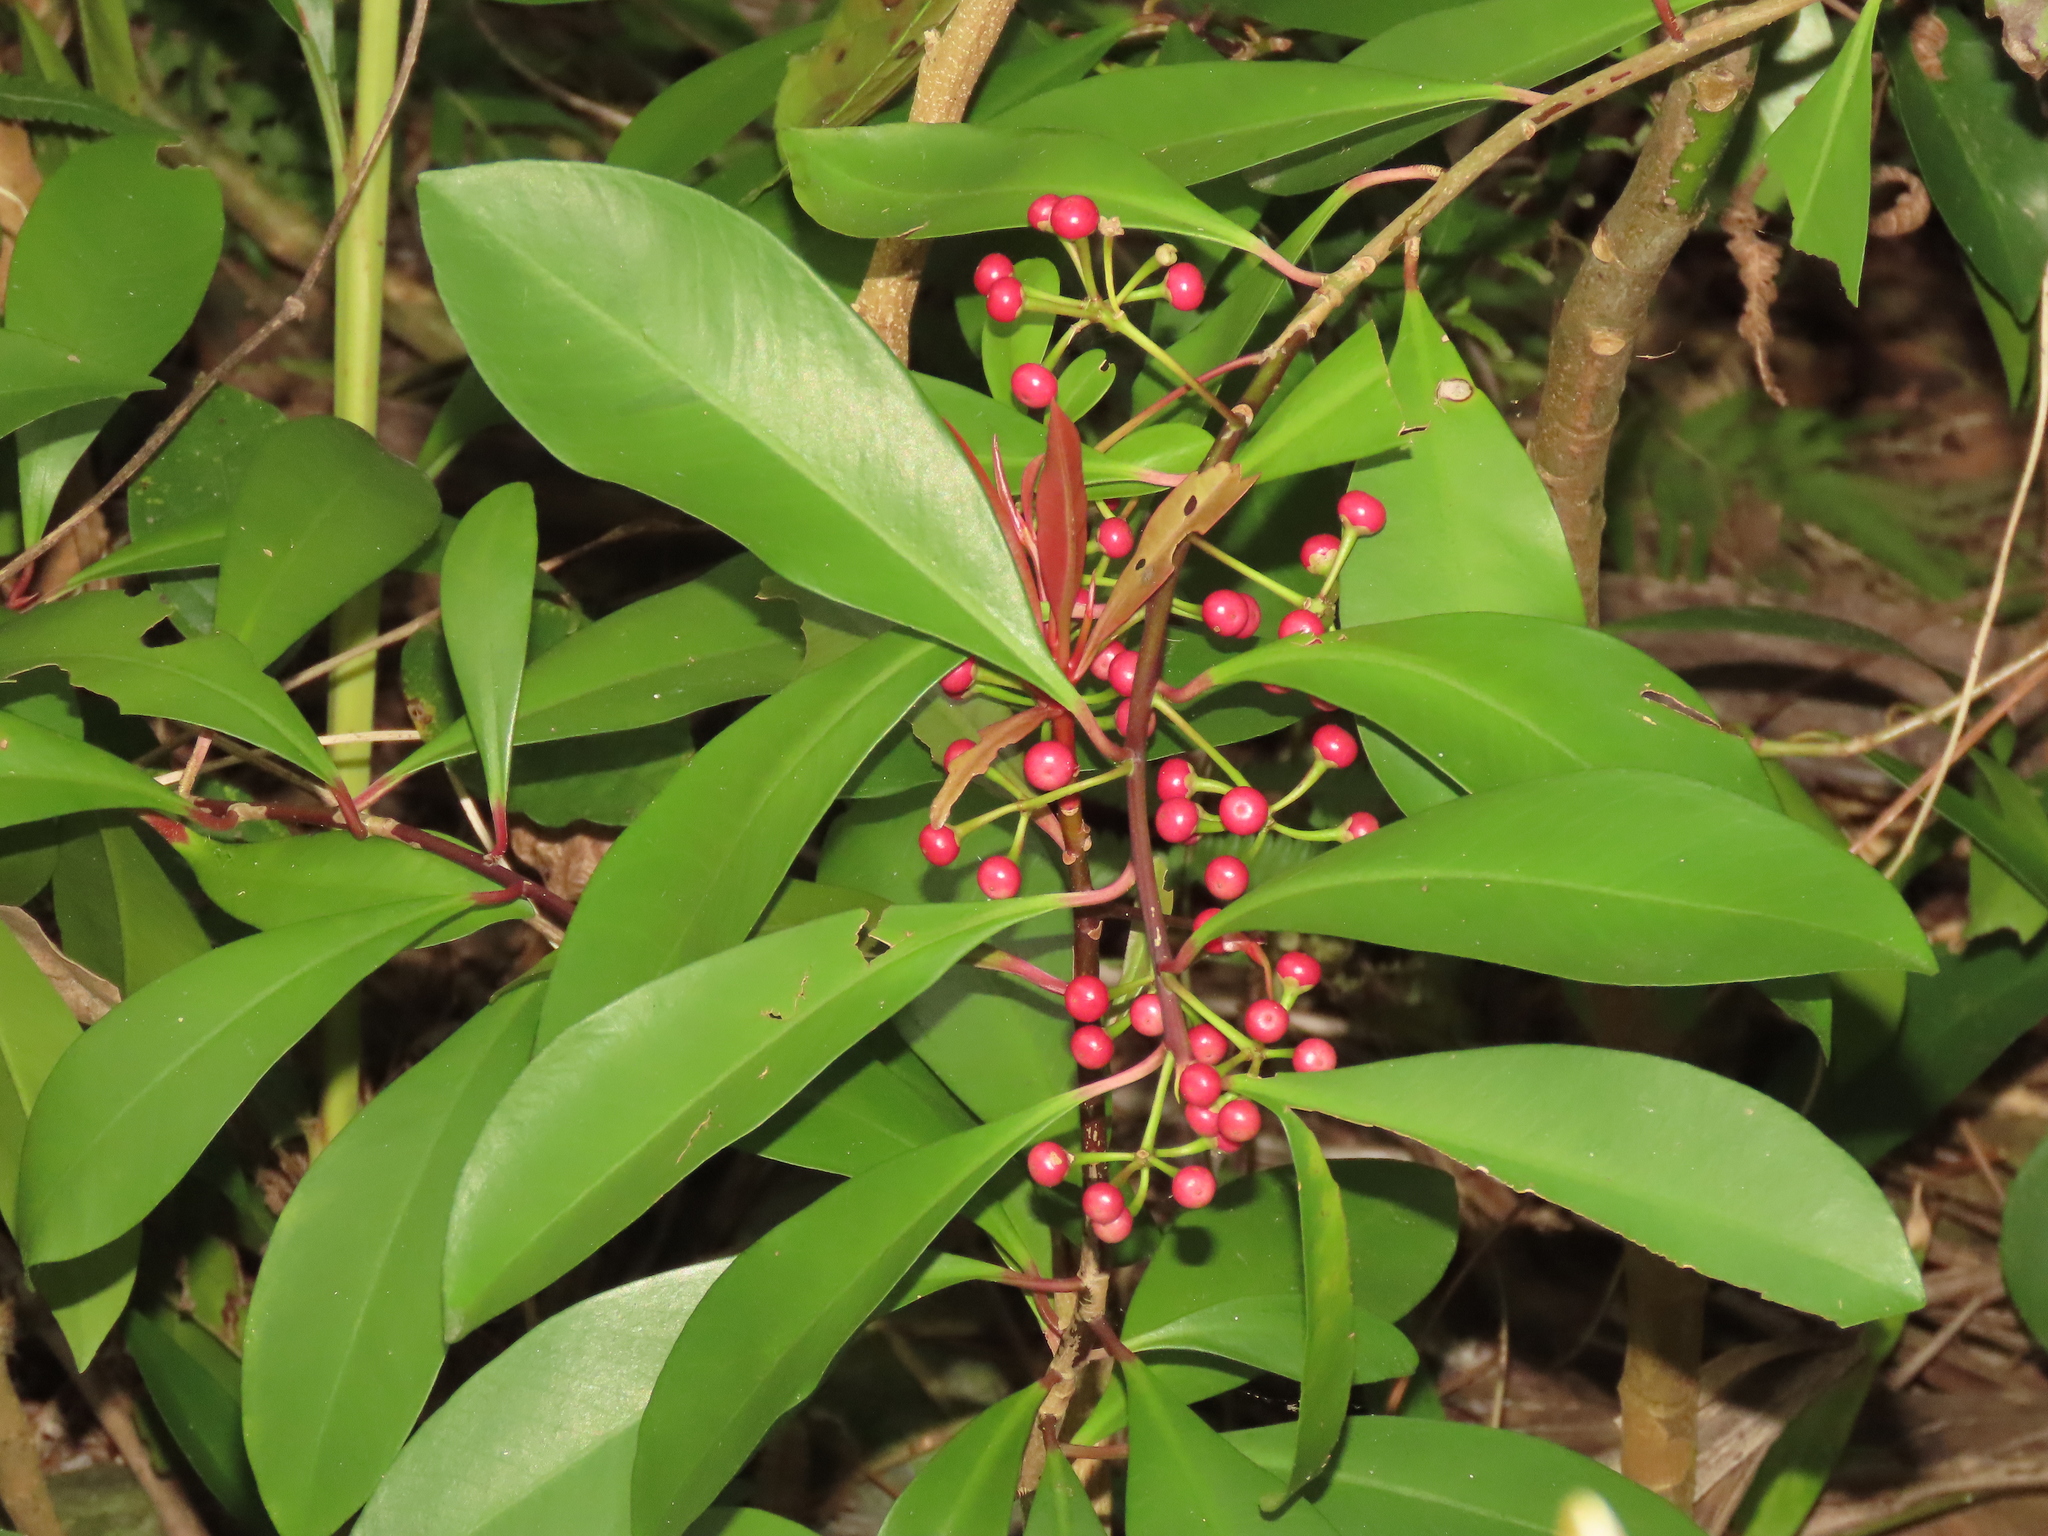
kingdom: Plantae
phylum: Tracheophyta
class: Magnoliopsida
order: Ericales
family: Primulaceae
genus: Ardisia
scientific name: Ardisia elliptica
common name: Shoebutton
